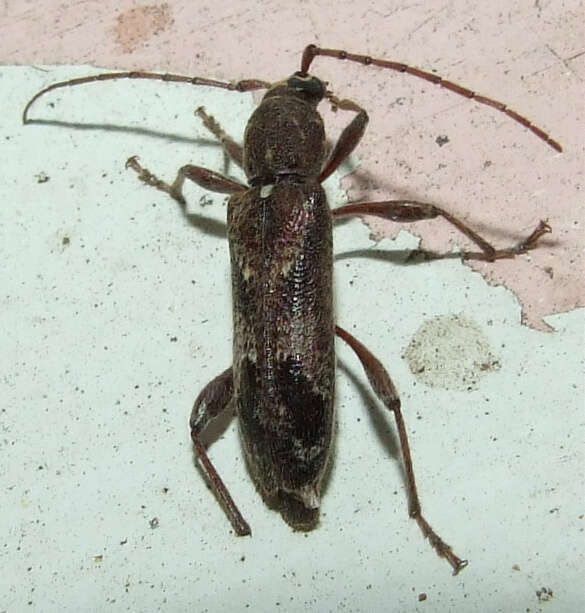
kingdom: Animalia
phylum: Arthropoda
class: Insecta
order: Coleoptera
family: Cerambycidae
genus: Phacodes
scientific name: Phacodes personatus
